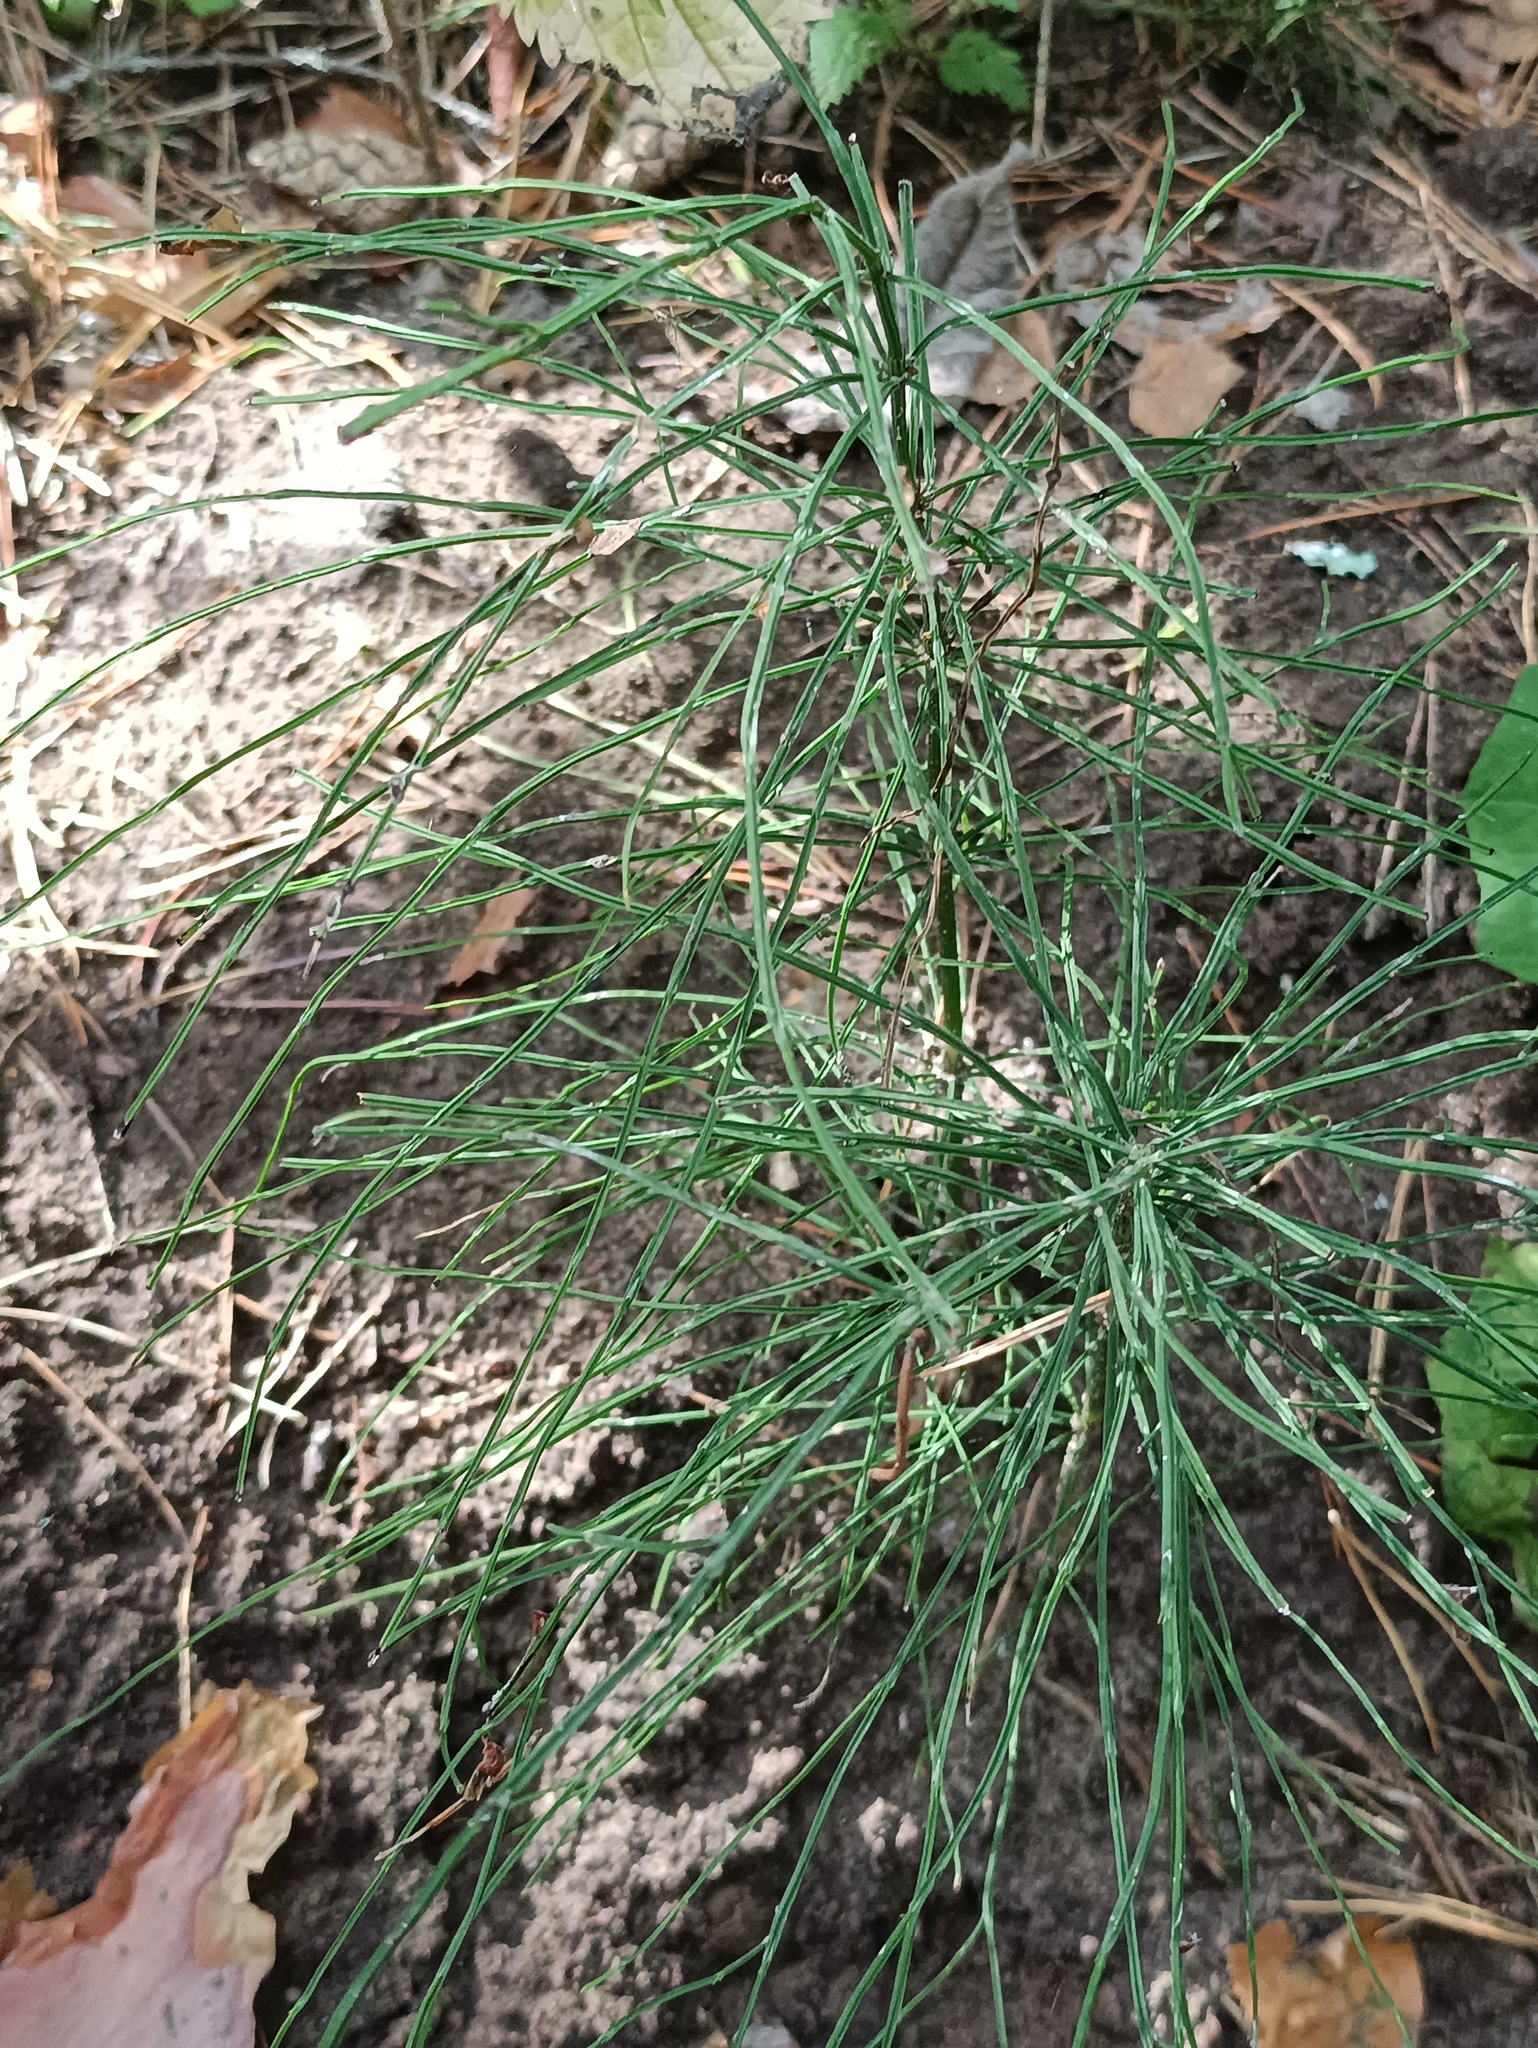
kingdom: Plantae
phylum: Tracheophyta
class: Polypodiopsida
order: Equisetales
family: Equisetaceae
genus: Equisetum
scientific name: Equisetum arvense
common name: Field horsetail
